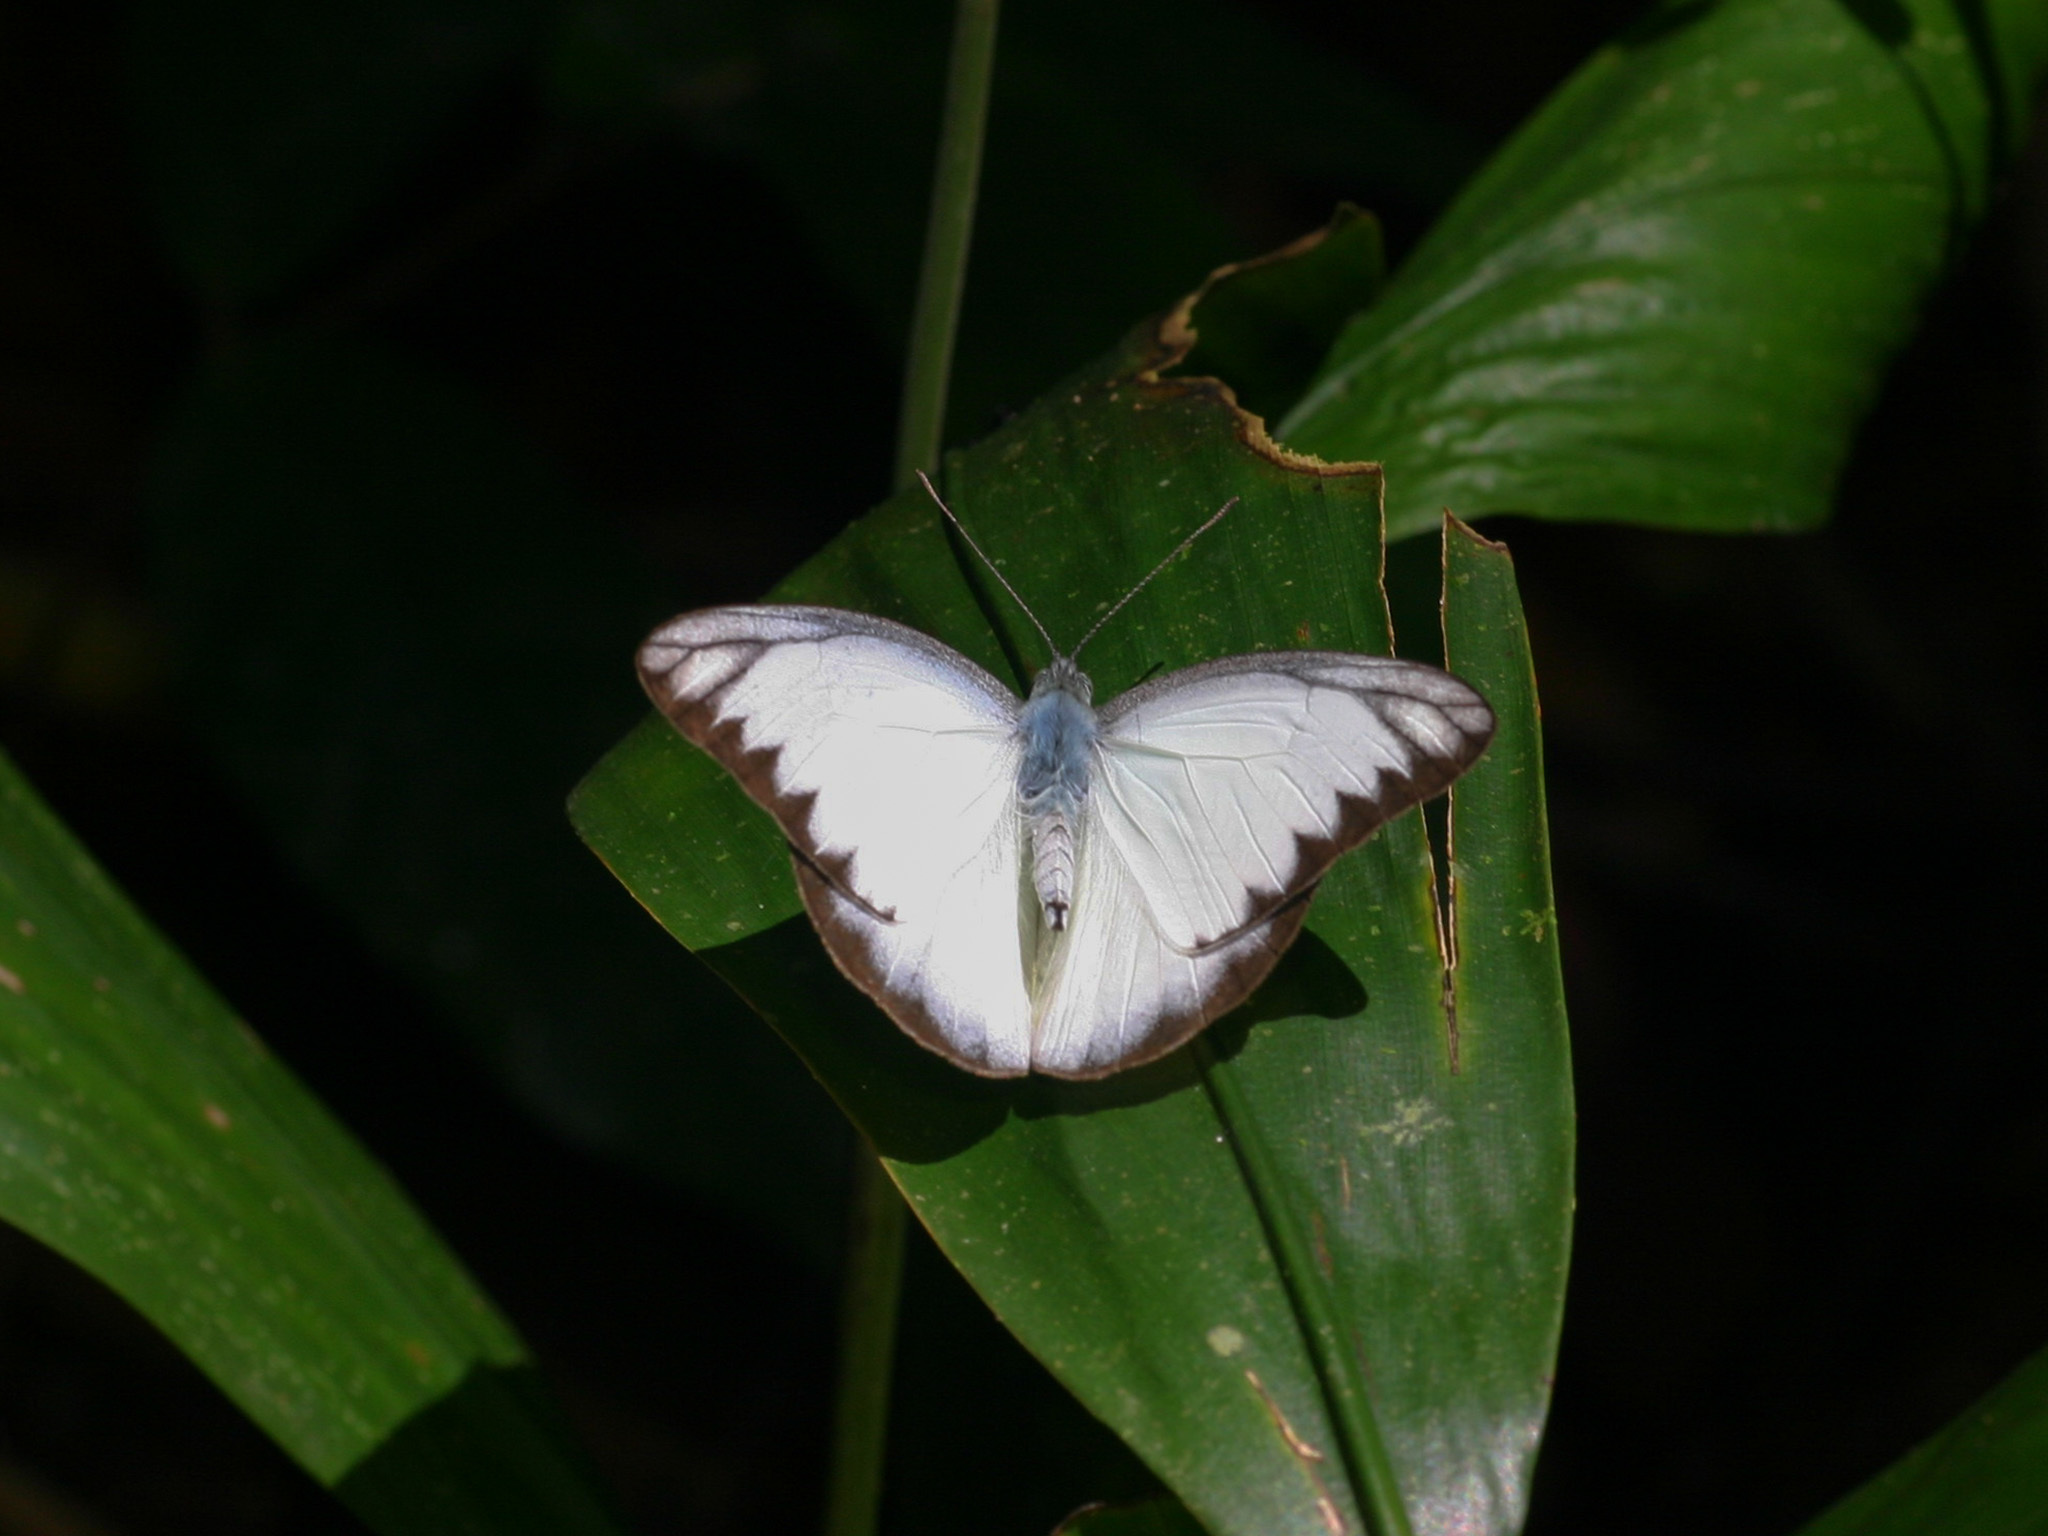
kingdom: Animalia
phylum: Arthropoda
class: Insecta
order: Lepidoptera
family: Pieridae
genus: Appias
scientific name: Appias lyncida
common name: Chocolate albatross
